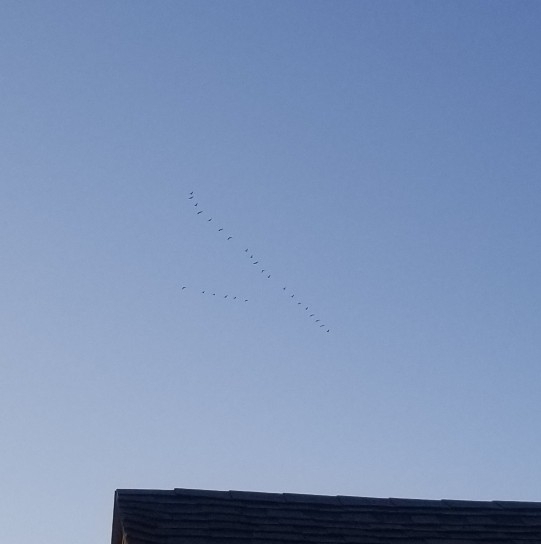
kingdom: Animalia
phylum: Chordata
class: Aves
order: Anseriformes
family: Anatidae
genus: Branta
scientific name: Branta canadensis
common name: Canada goose
